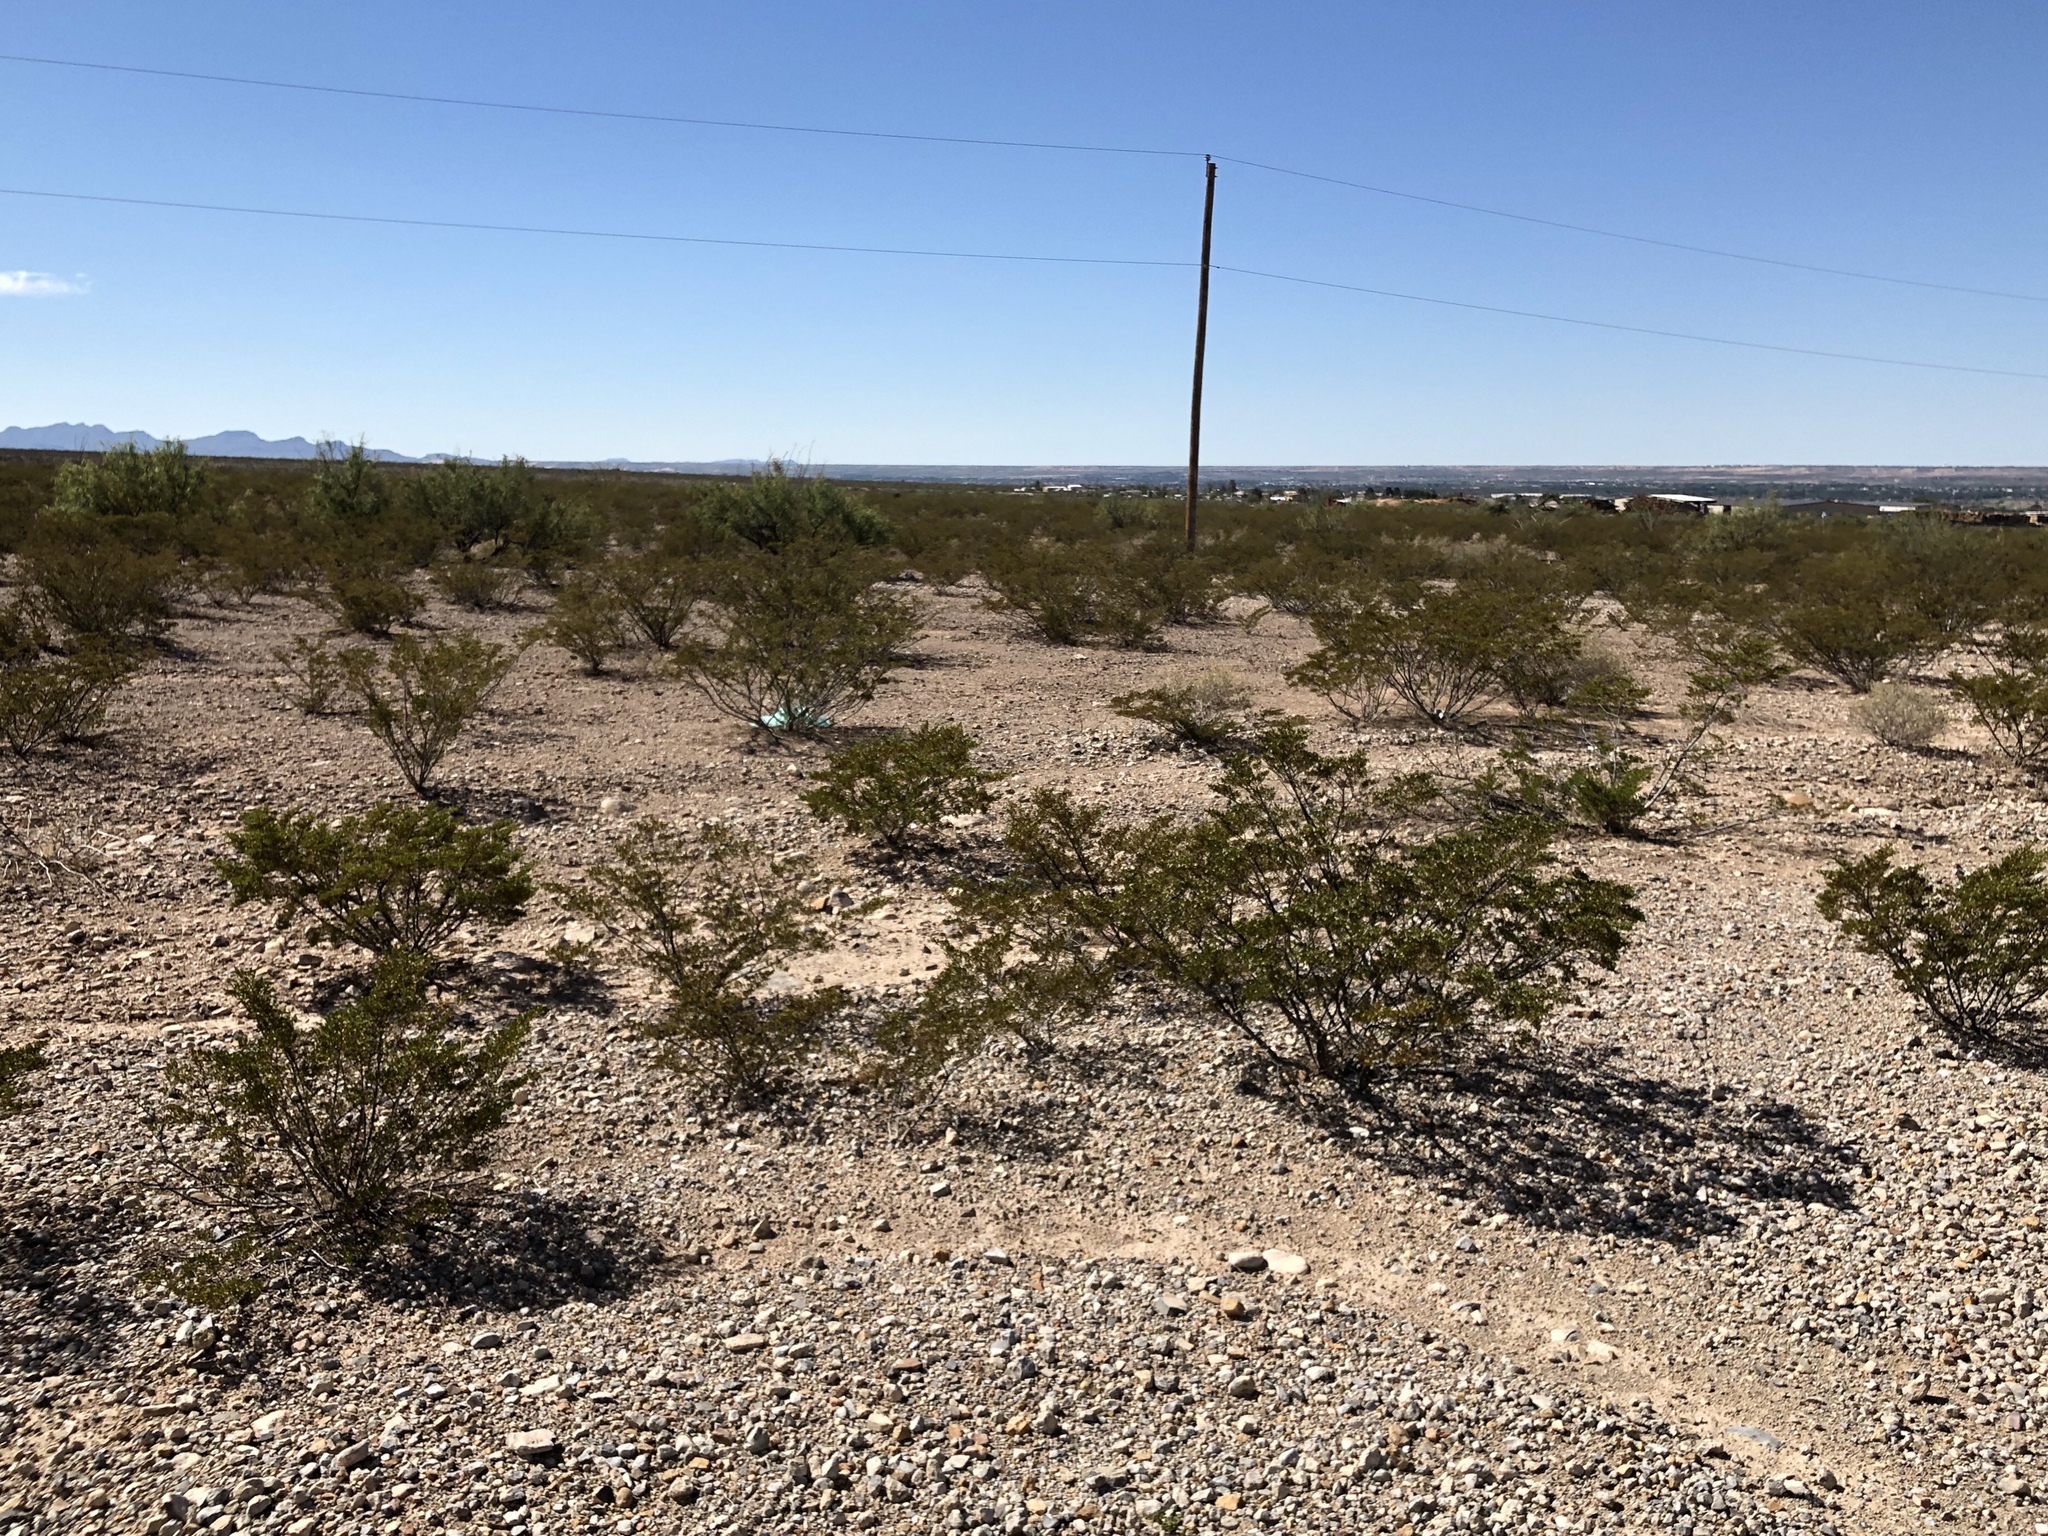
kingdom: Plantae
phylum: Tracheophyta
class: Magnoliopsida
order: Zygophyllales
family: Zygophyllaceae
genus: Larrea
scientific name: Larrea tridentata
